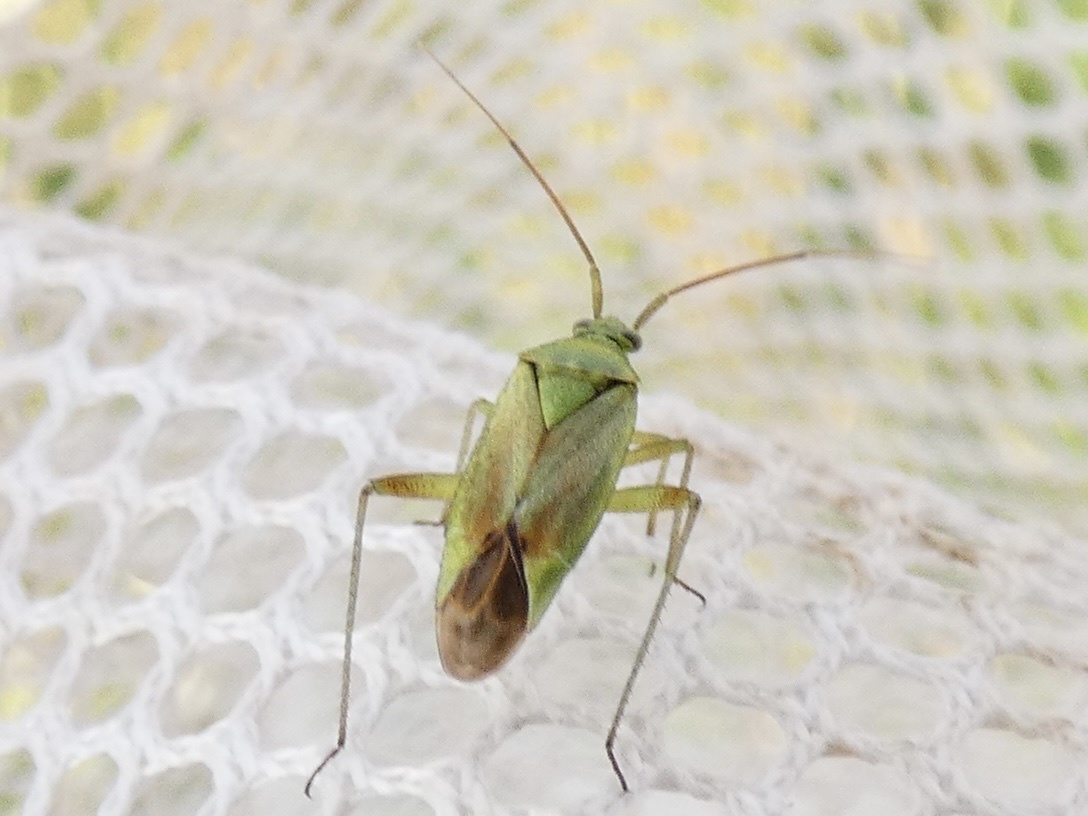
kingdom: Animalia
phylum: Arthropoda
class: Insecta
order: Hemiptera
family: Miridae
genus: Closterotomus
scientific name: Closterotomus norvegicus
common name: Plant bug
